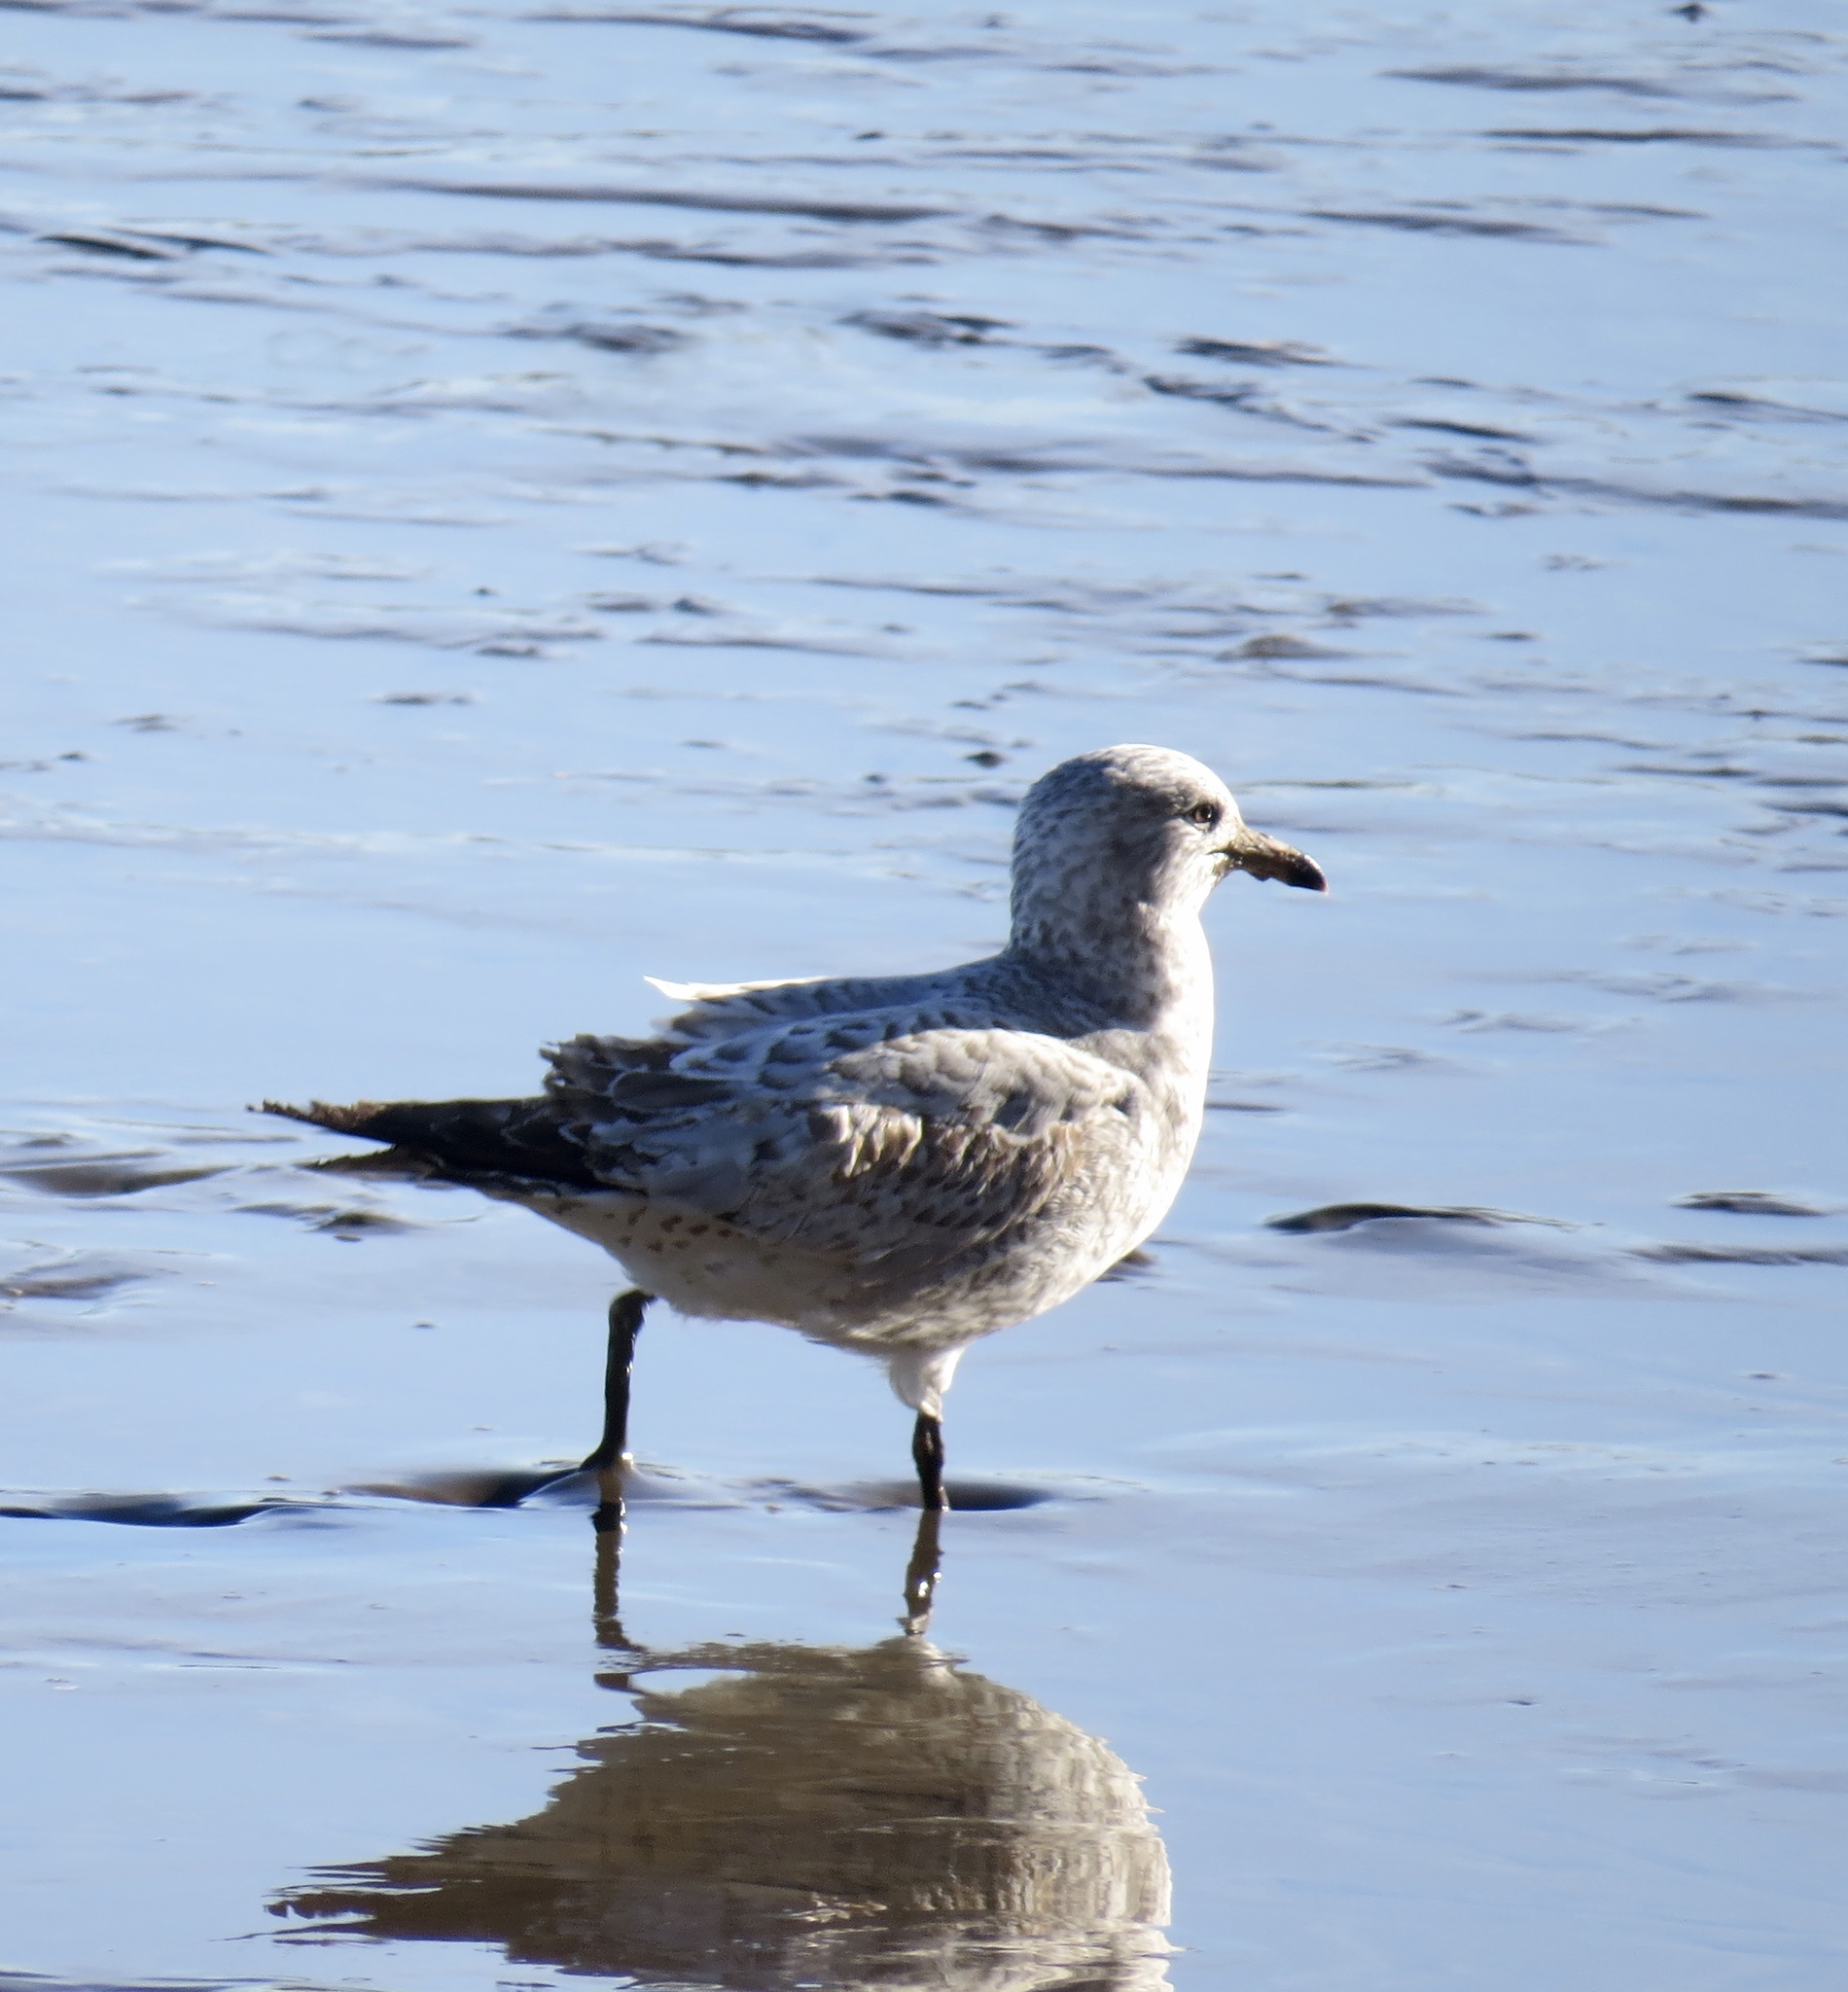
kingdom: Animalia
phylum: Chordata
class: Aves
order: Charadriiformes
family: Laridae
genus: Larus
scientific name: Larus delawarensis
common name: Ring-billed gull
